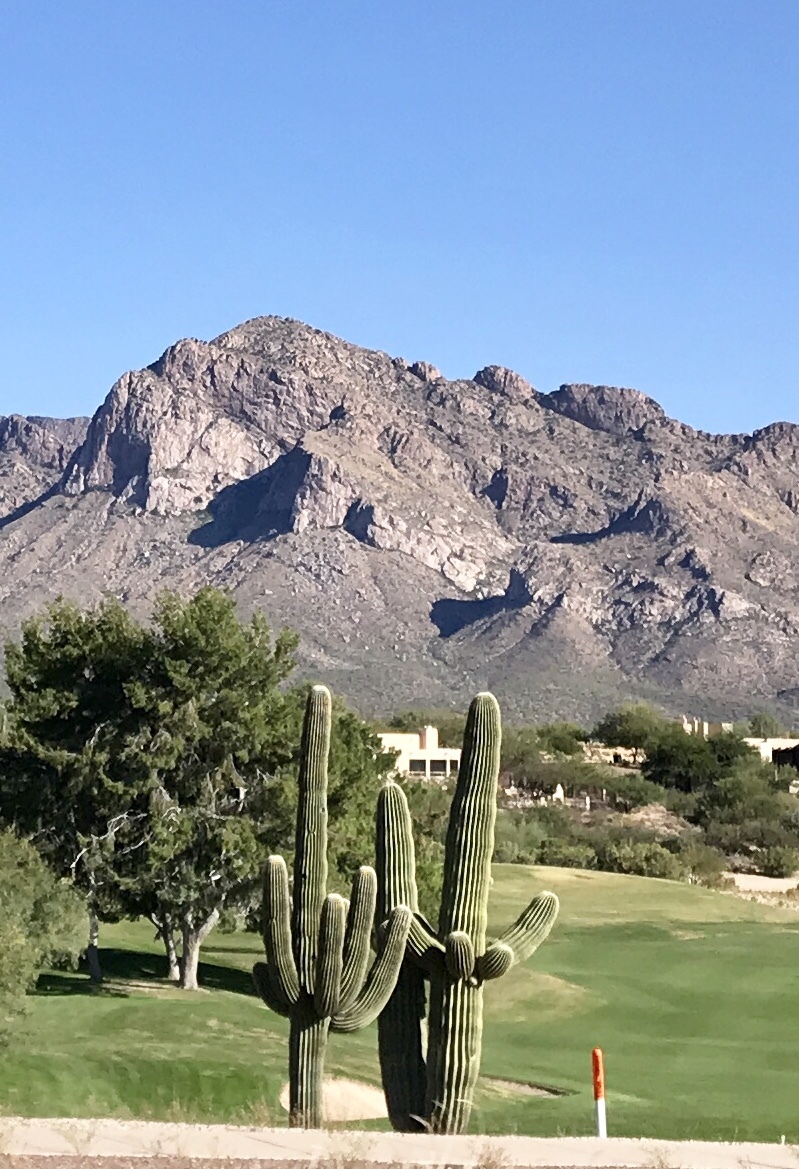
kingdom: Plantae
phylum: Tracheophyta
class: Magnoliopsida
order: Caryophyllales
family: Cactaceae
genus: Carnegiea
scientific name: Carnegiea gigantea
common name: Saguaro
